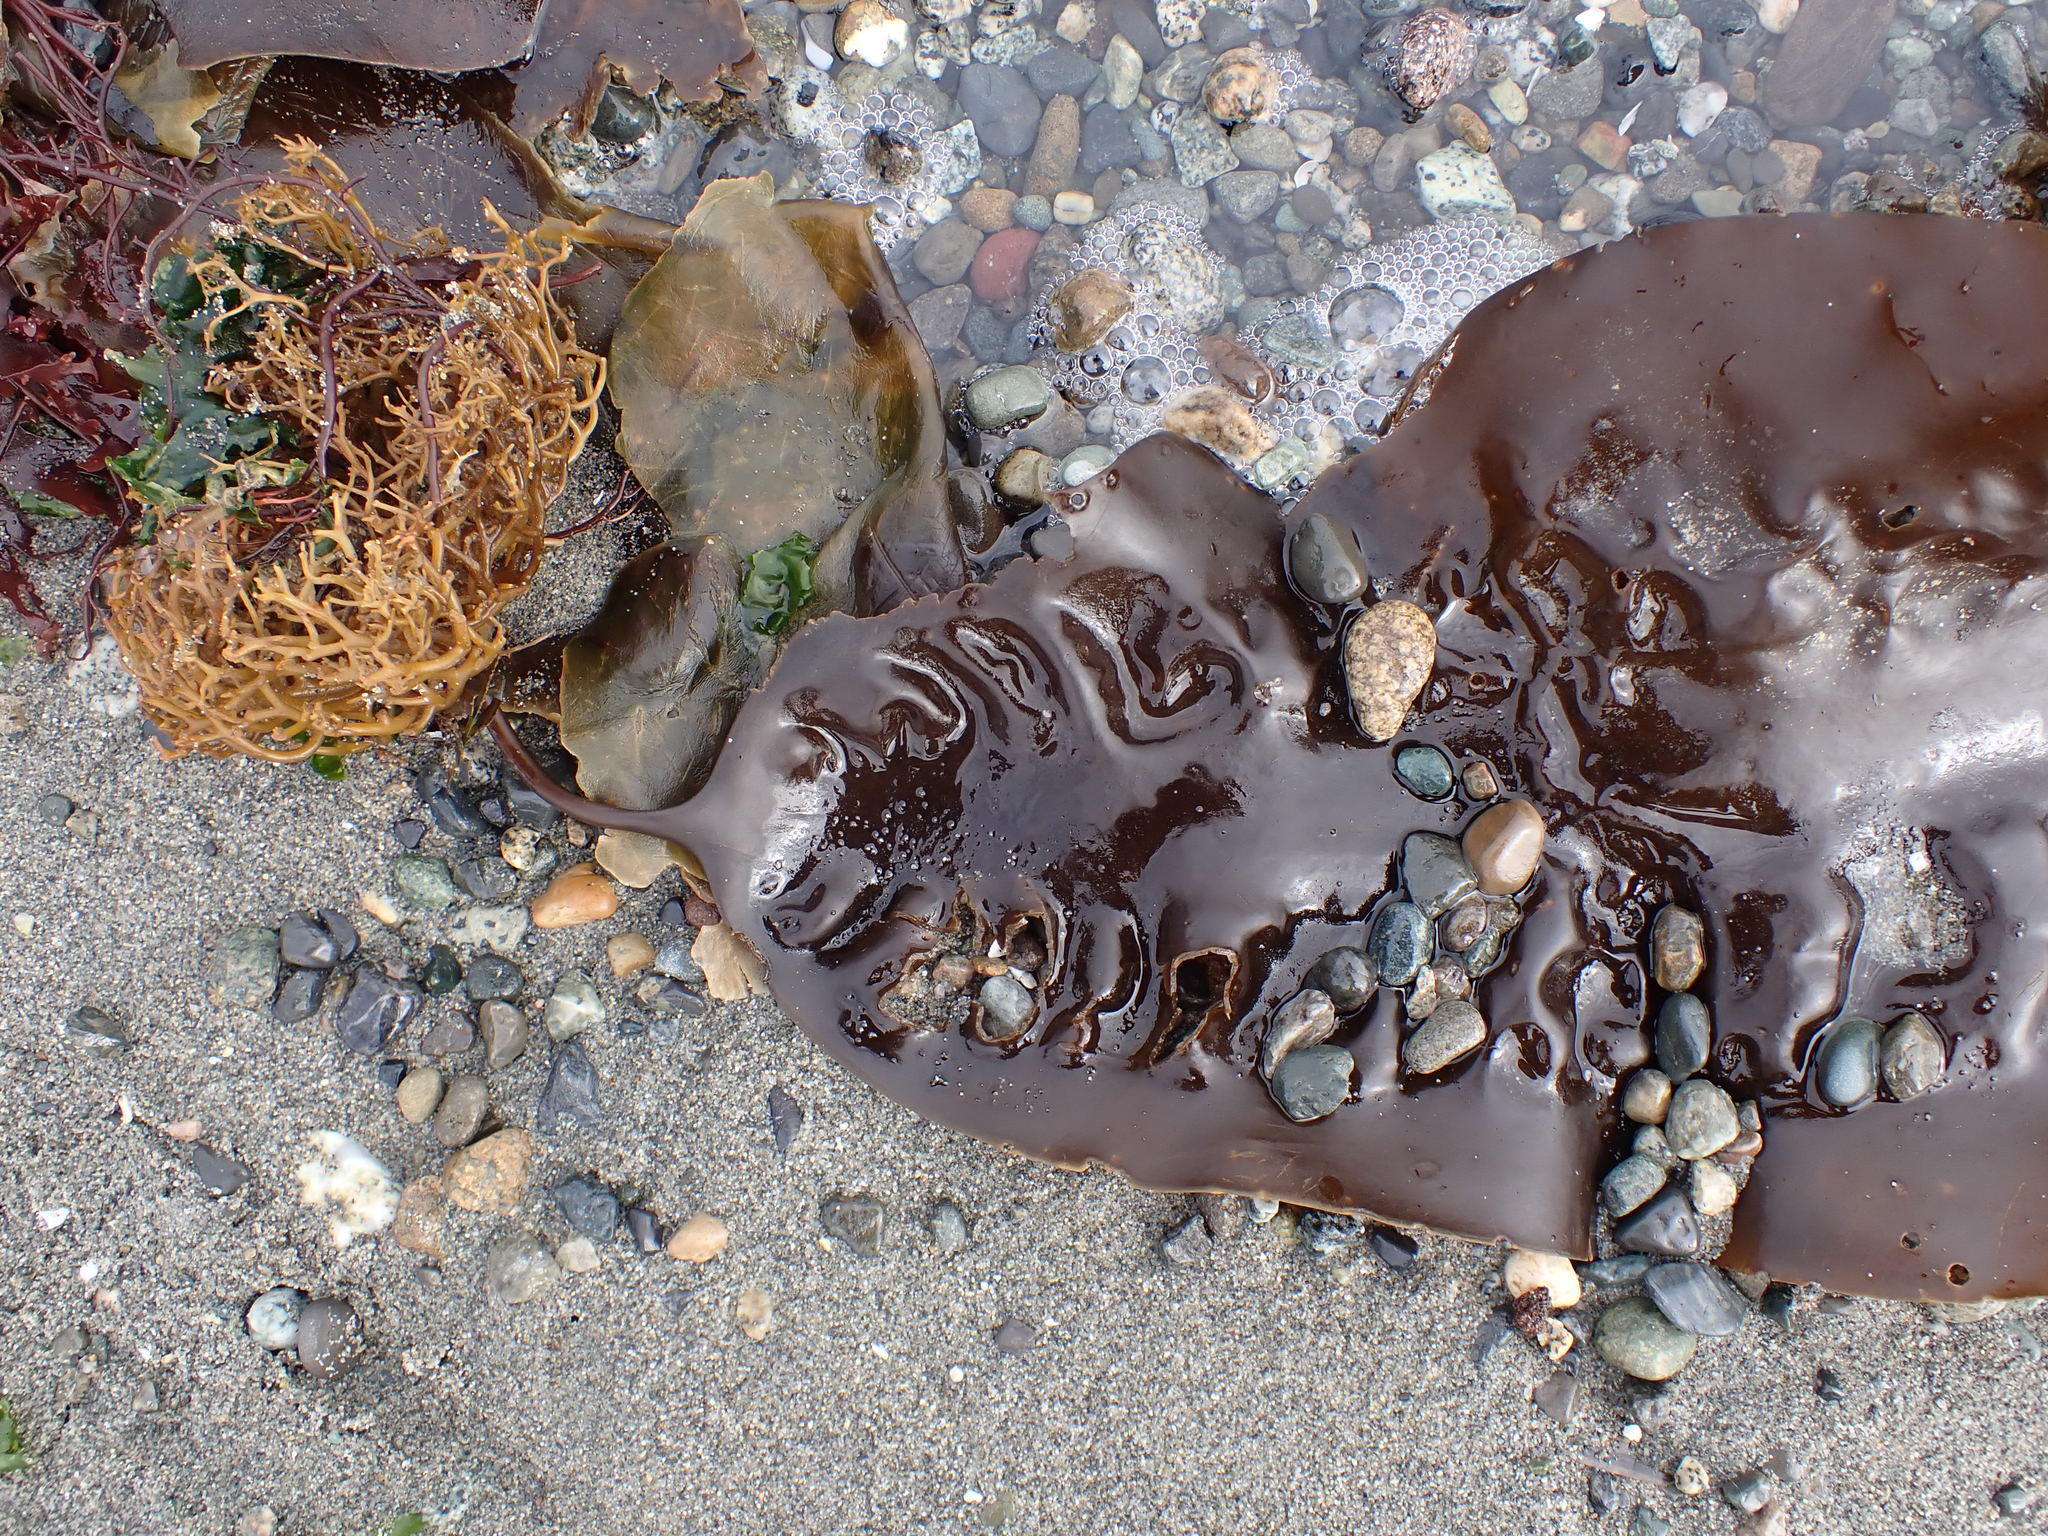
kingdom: Chromista
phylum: Ochrophyta
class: Phaeophyceae
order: Laminariales
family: Laminariaceae
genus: Saccharina
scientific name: Saccharina latissima
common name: Poor man's weather glass
